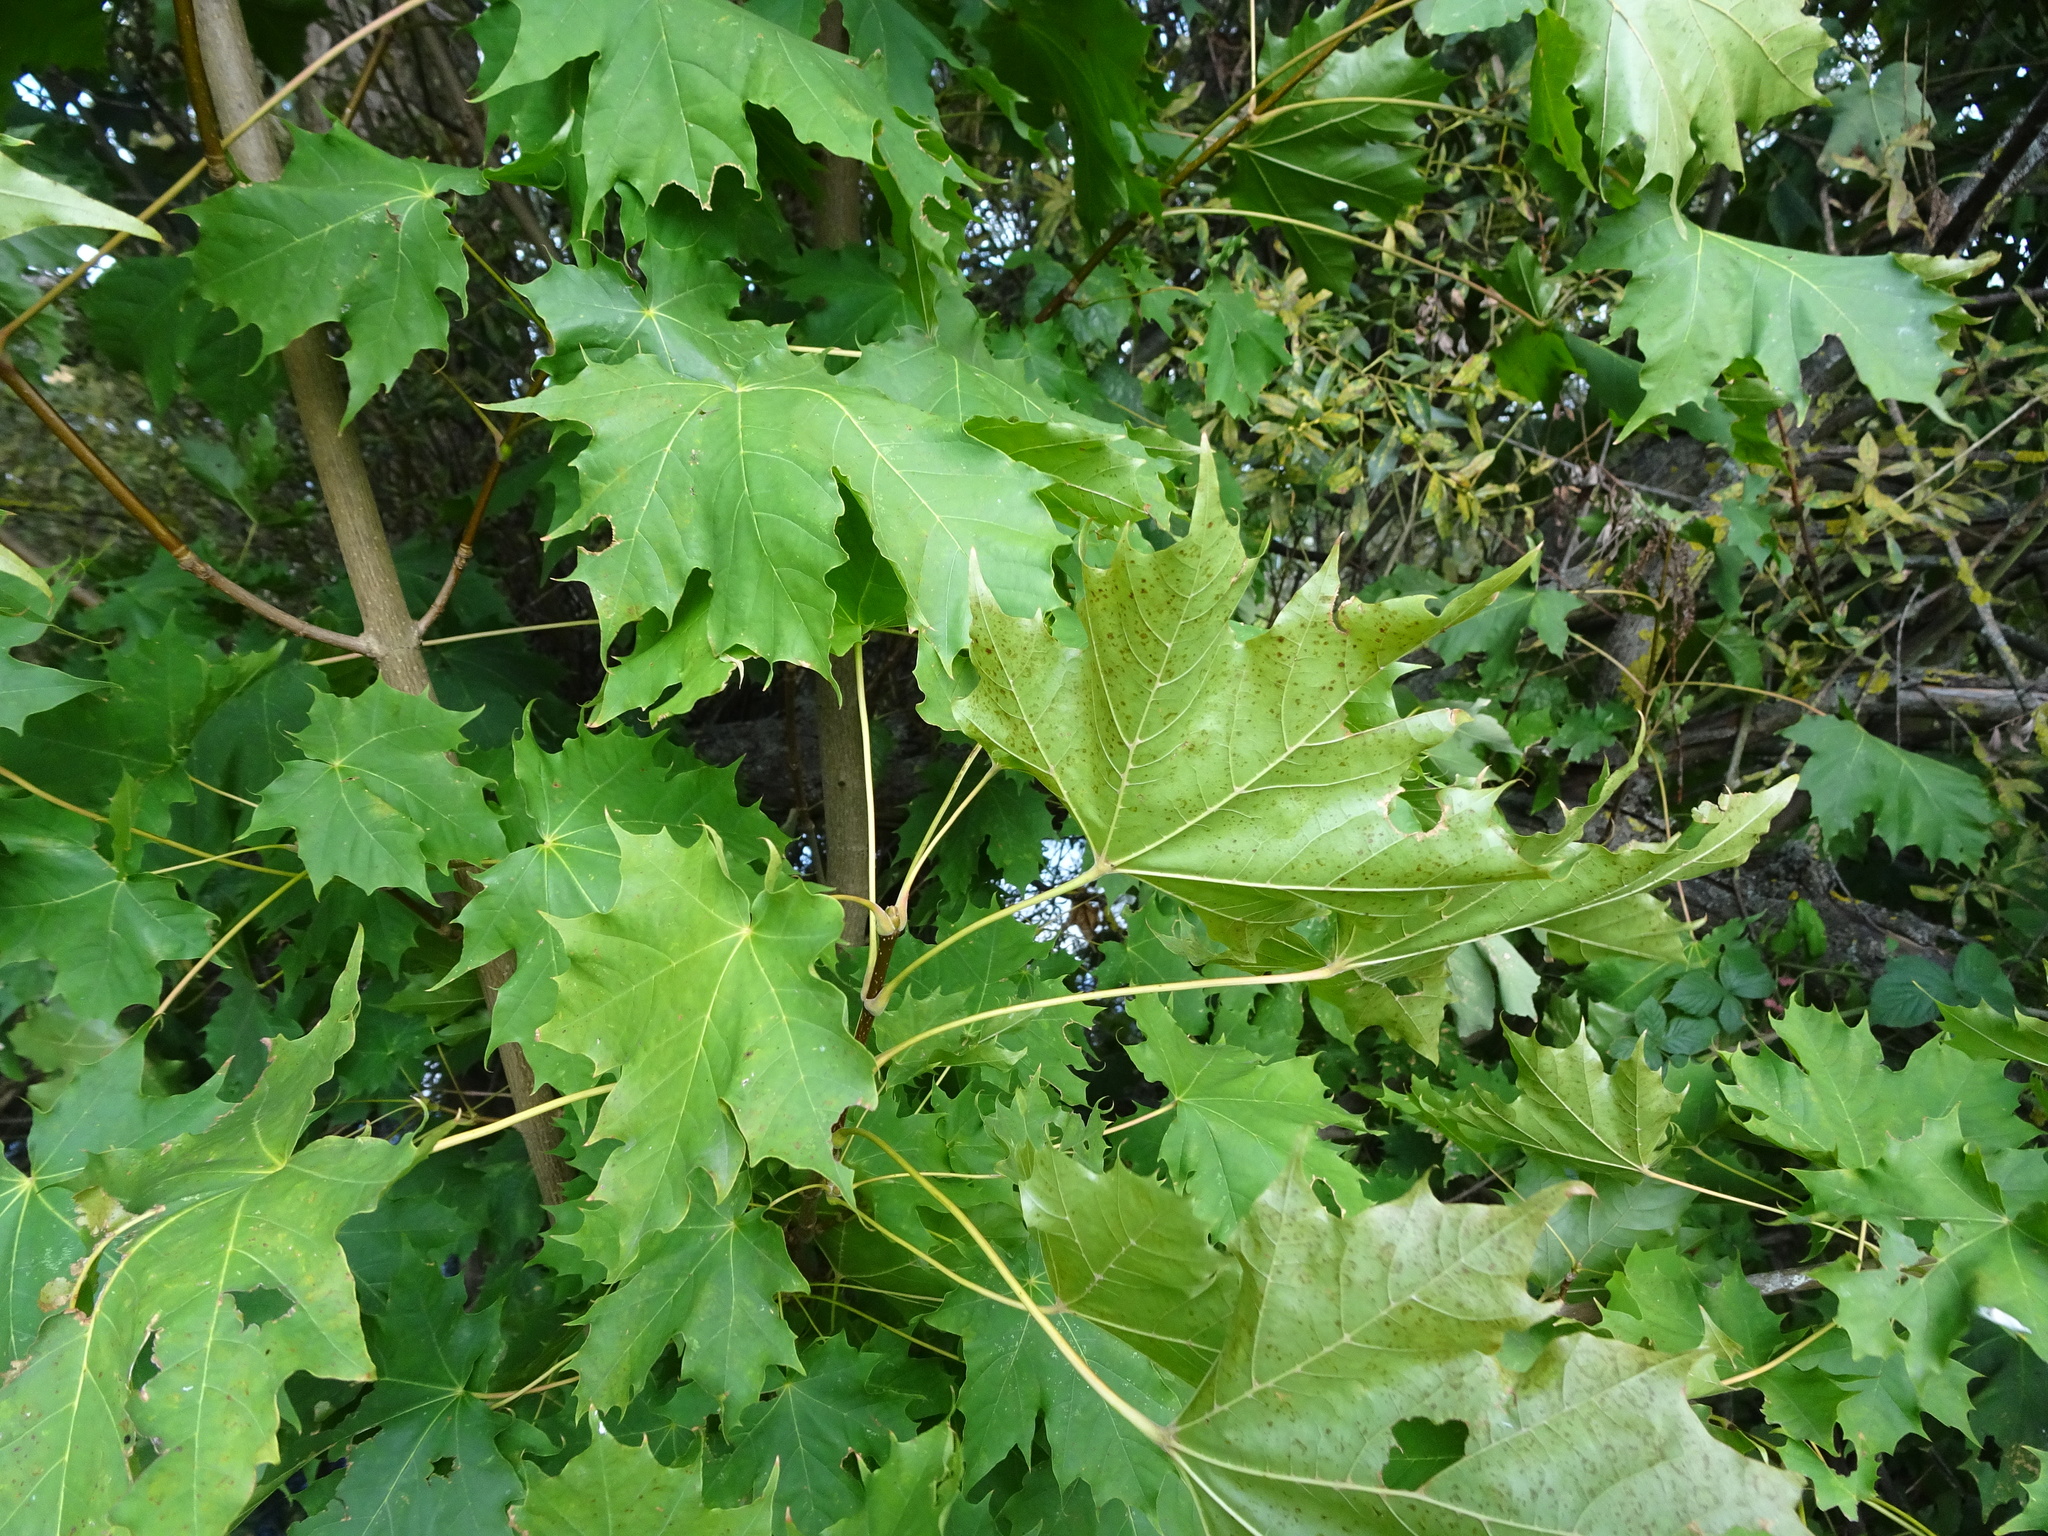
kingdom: Plantae
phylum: Tracheophyta
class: Magnoliopsida
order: Sapindales
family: Sapindaceae
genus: Acer
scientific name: Acer platanoides
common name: Norway maple
